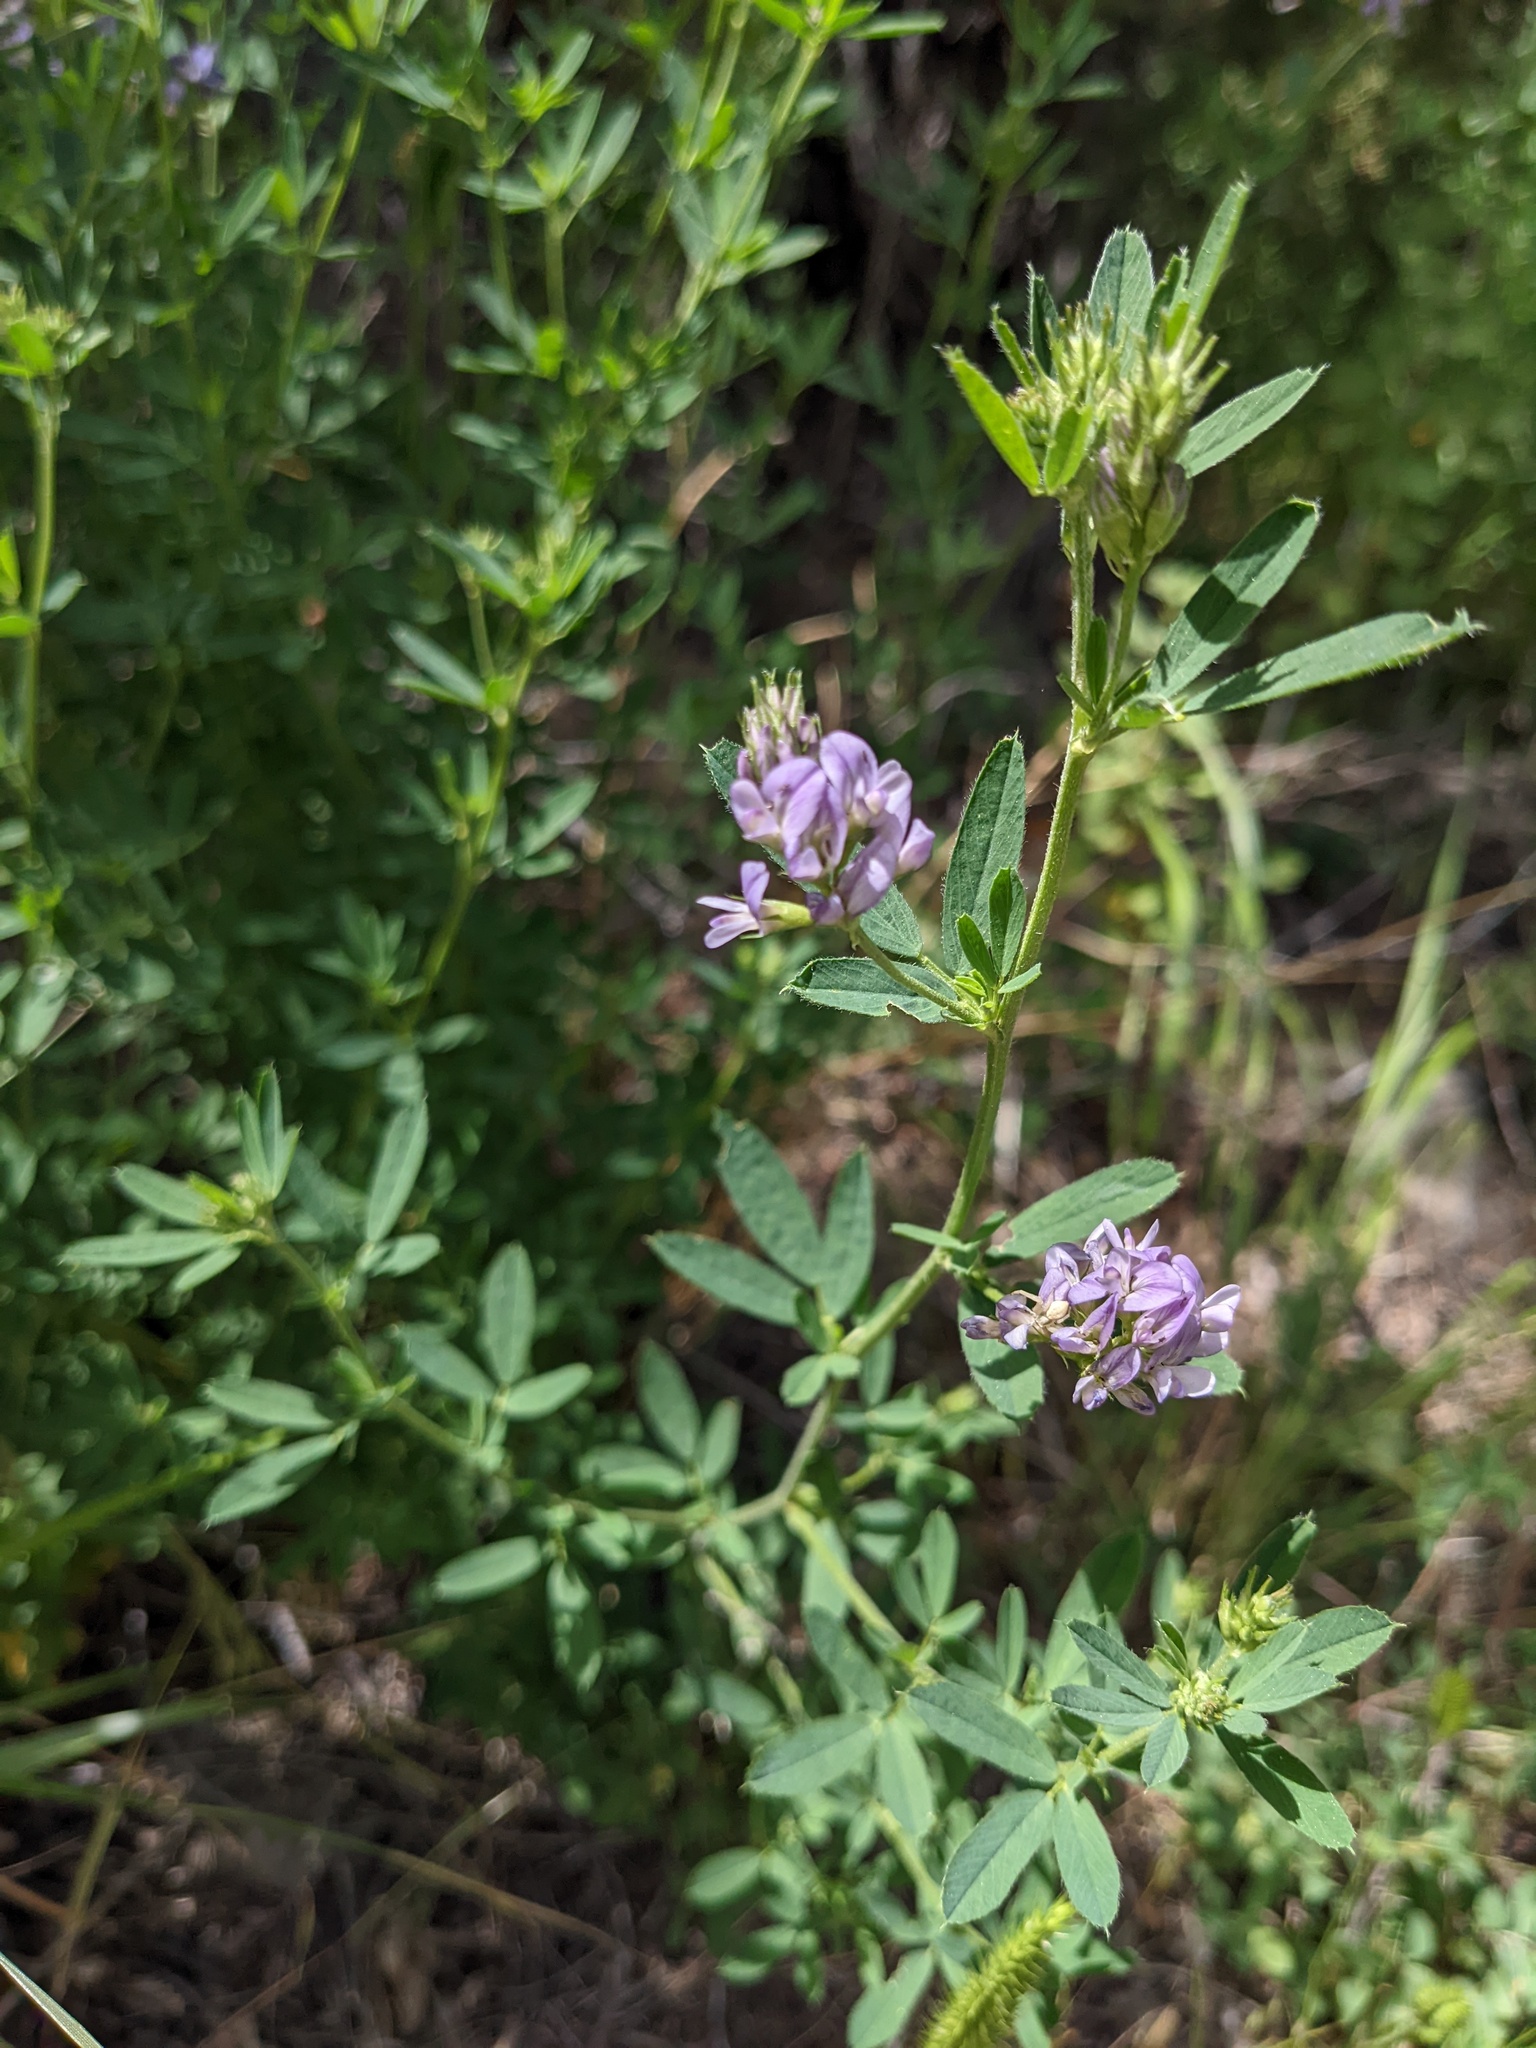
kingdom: Plantae
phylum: Tracheophyta
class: Magnoliopsida
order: Fabales
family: Fabaceae
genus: Medicago
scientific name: Medicago sativa
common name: Alfalfa
